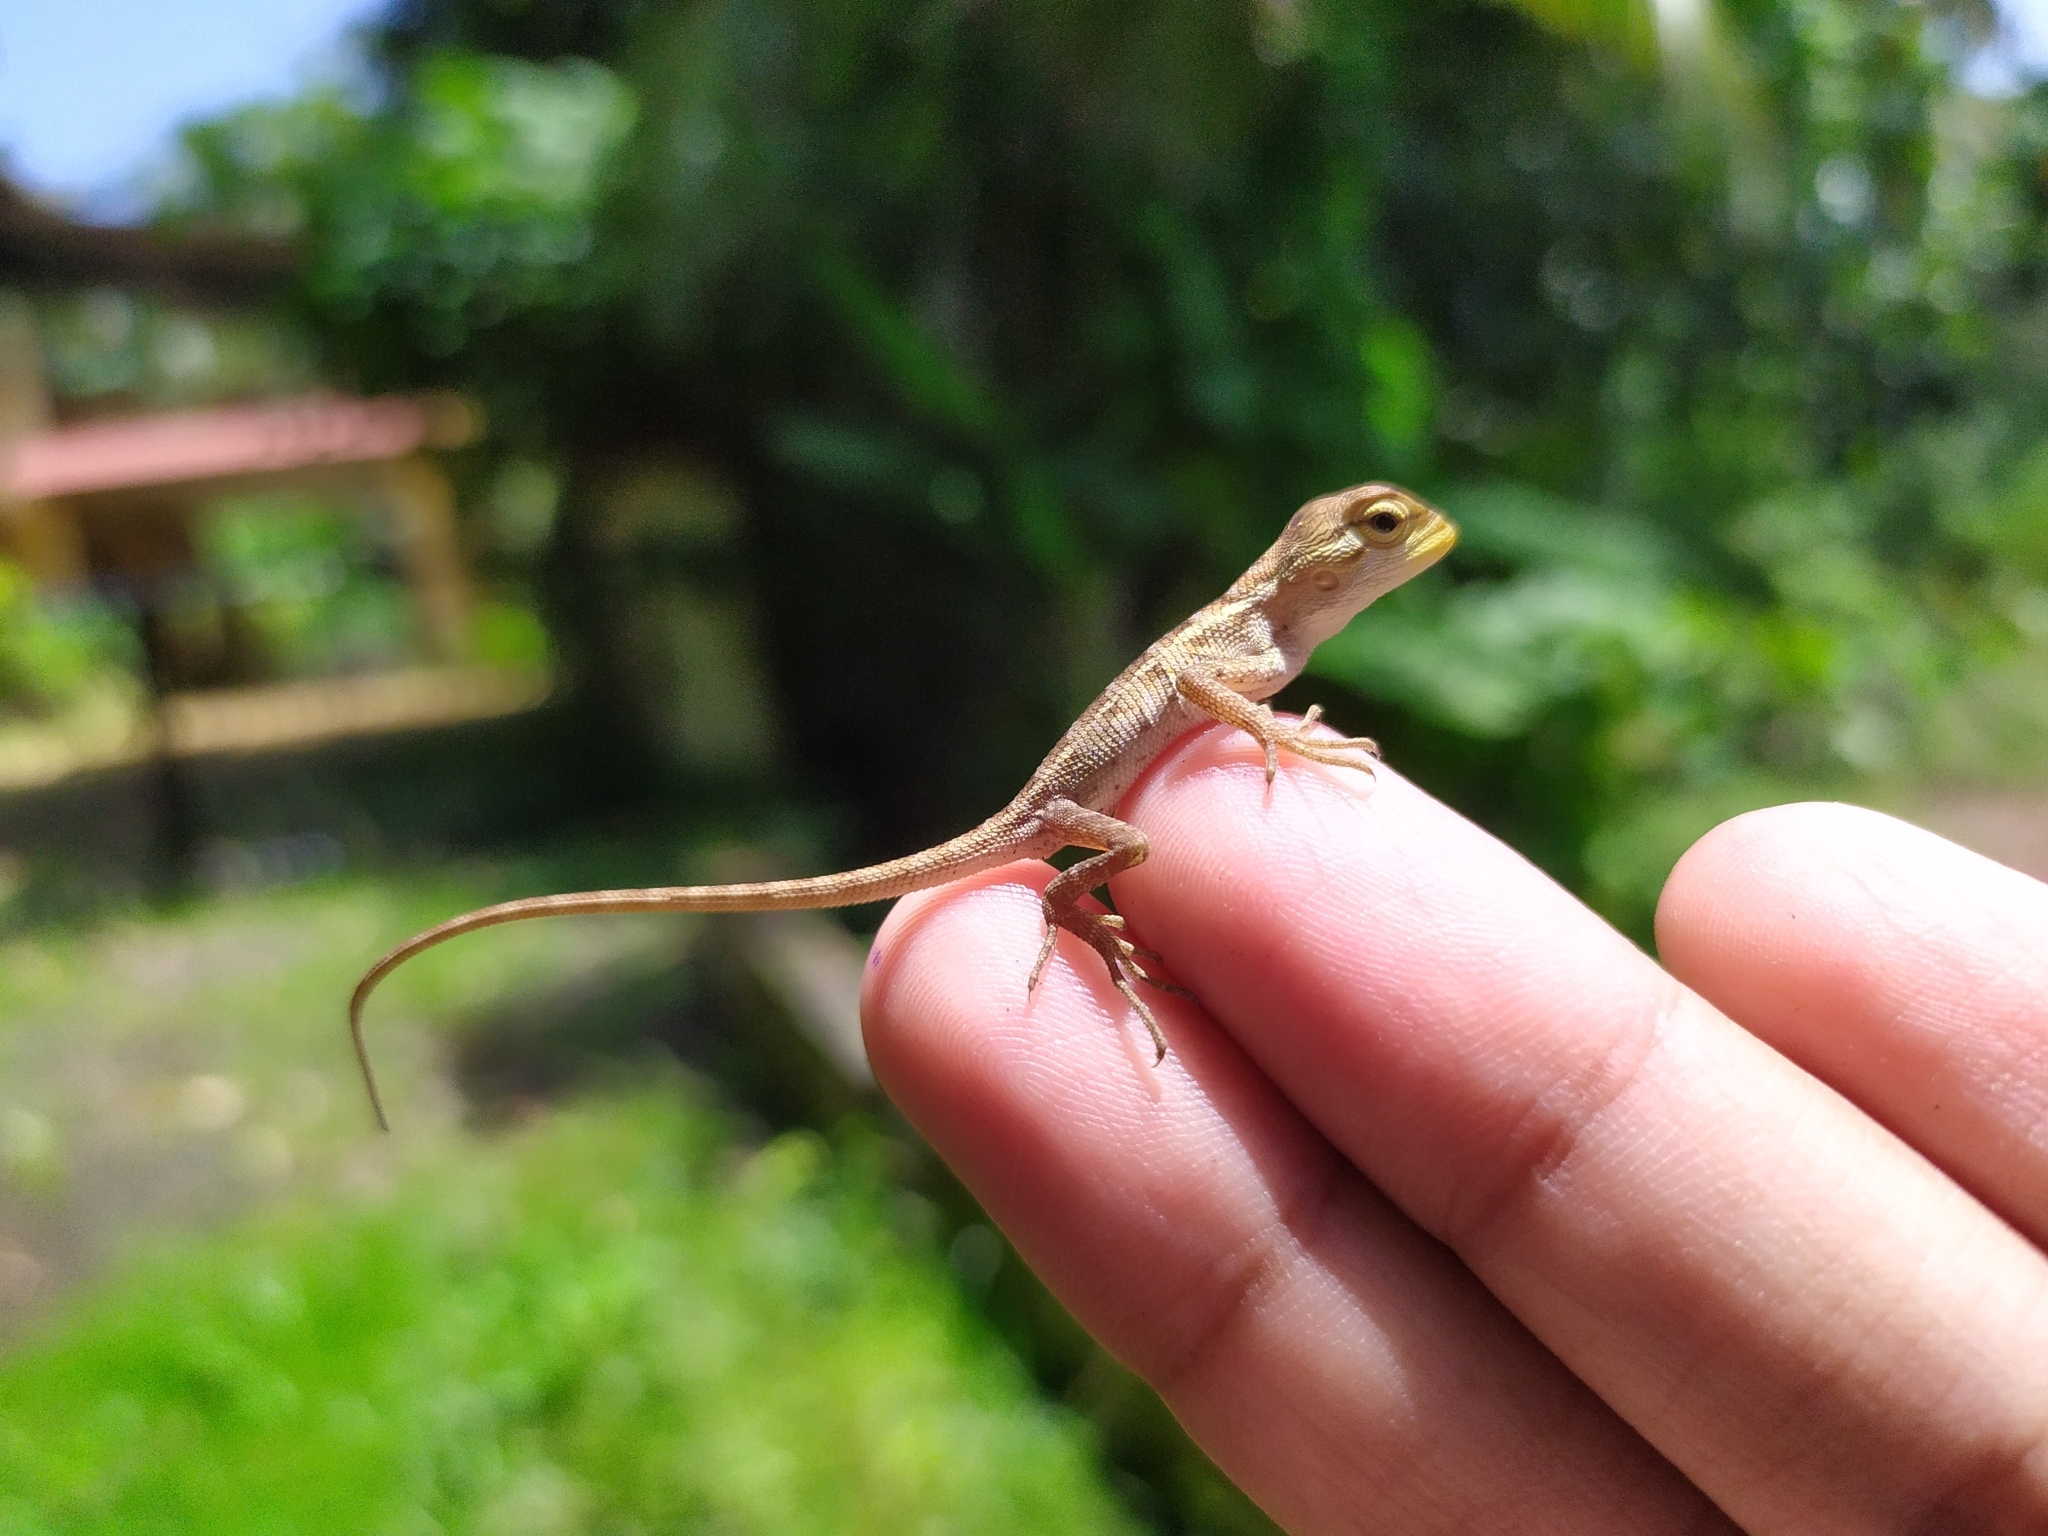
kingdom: Animalia
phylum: Chordata
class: Squamata
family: Agamidae
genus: Calotes
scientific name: Calotes versicolor
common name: Oriental garden lizard
